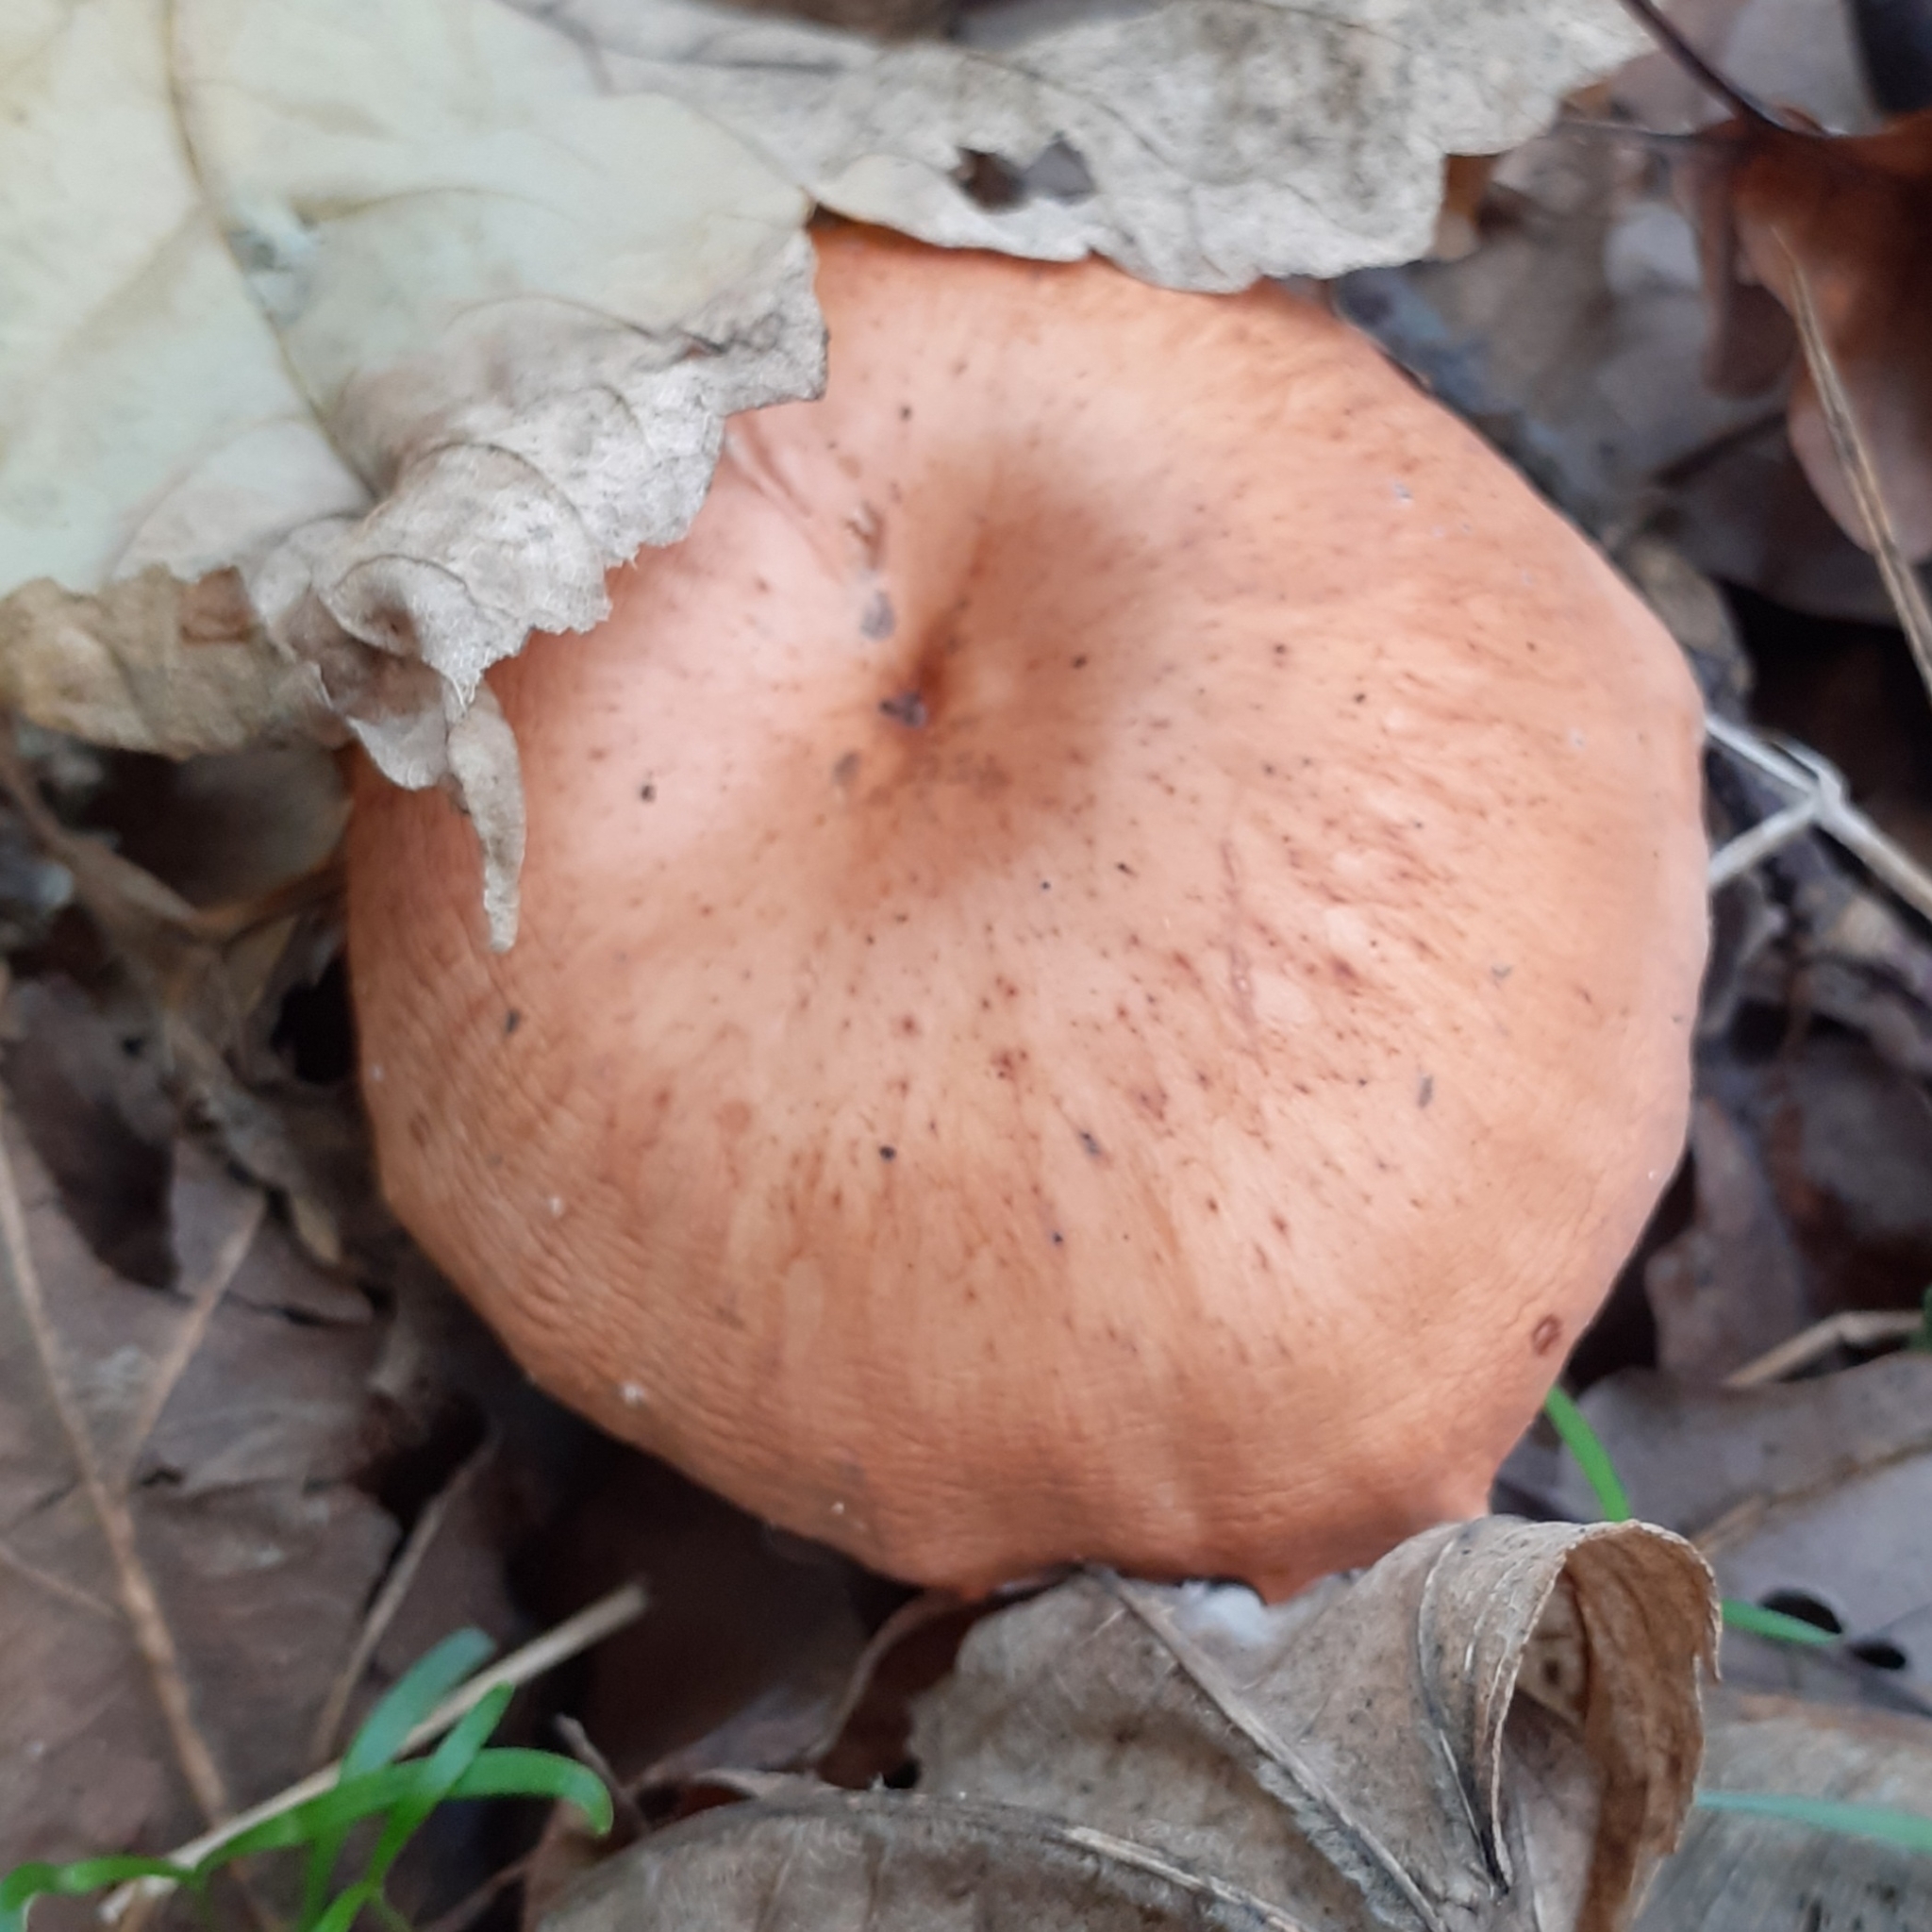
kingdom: Fungi
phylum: Basidiomycota
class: Agaricomycetes
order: Agaricales
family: Tricholomataceae
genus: Paralepista
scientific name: Paralepista flaccida
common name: Tawny funnel cap
